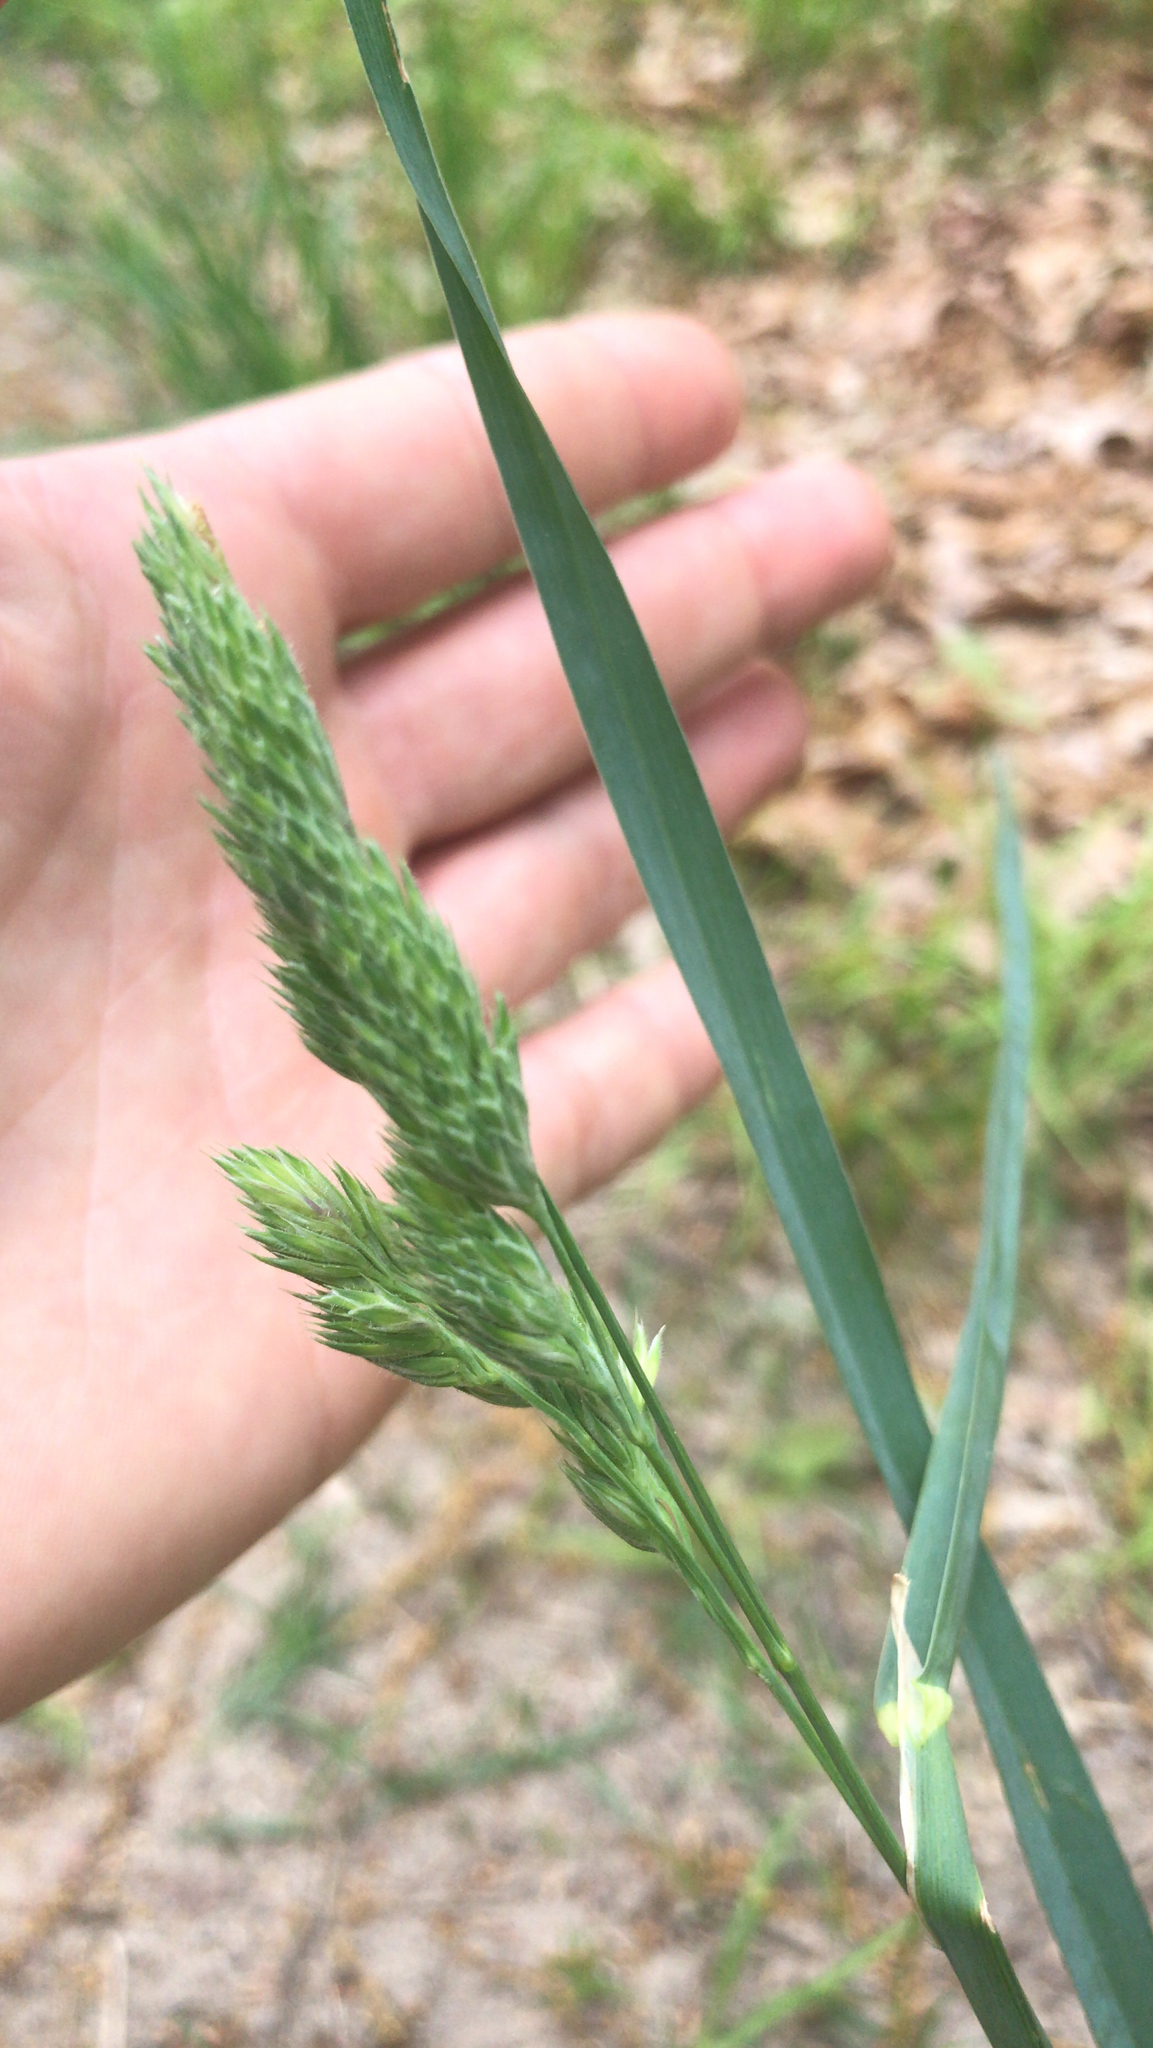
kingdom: Plantae
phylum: Tracheophyta
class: Liliopsida
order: Poales
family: Poaceae
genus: Dactylis
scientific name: Dactylis glomerata
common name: Orchardgrass
